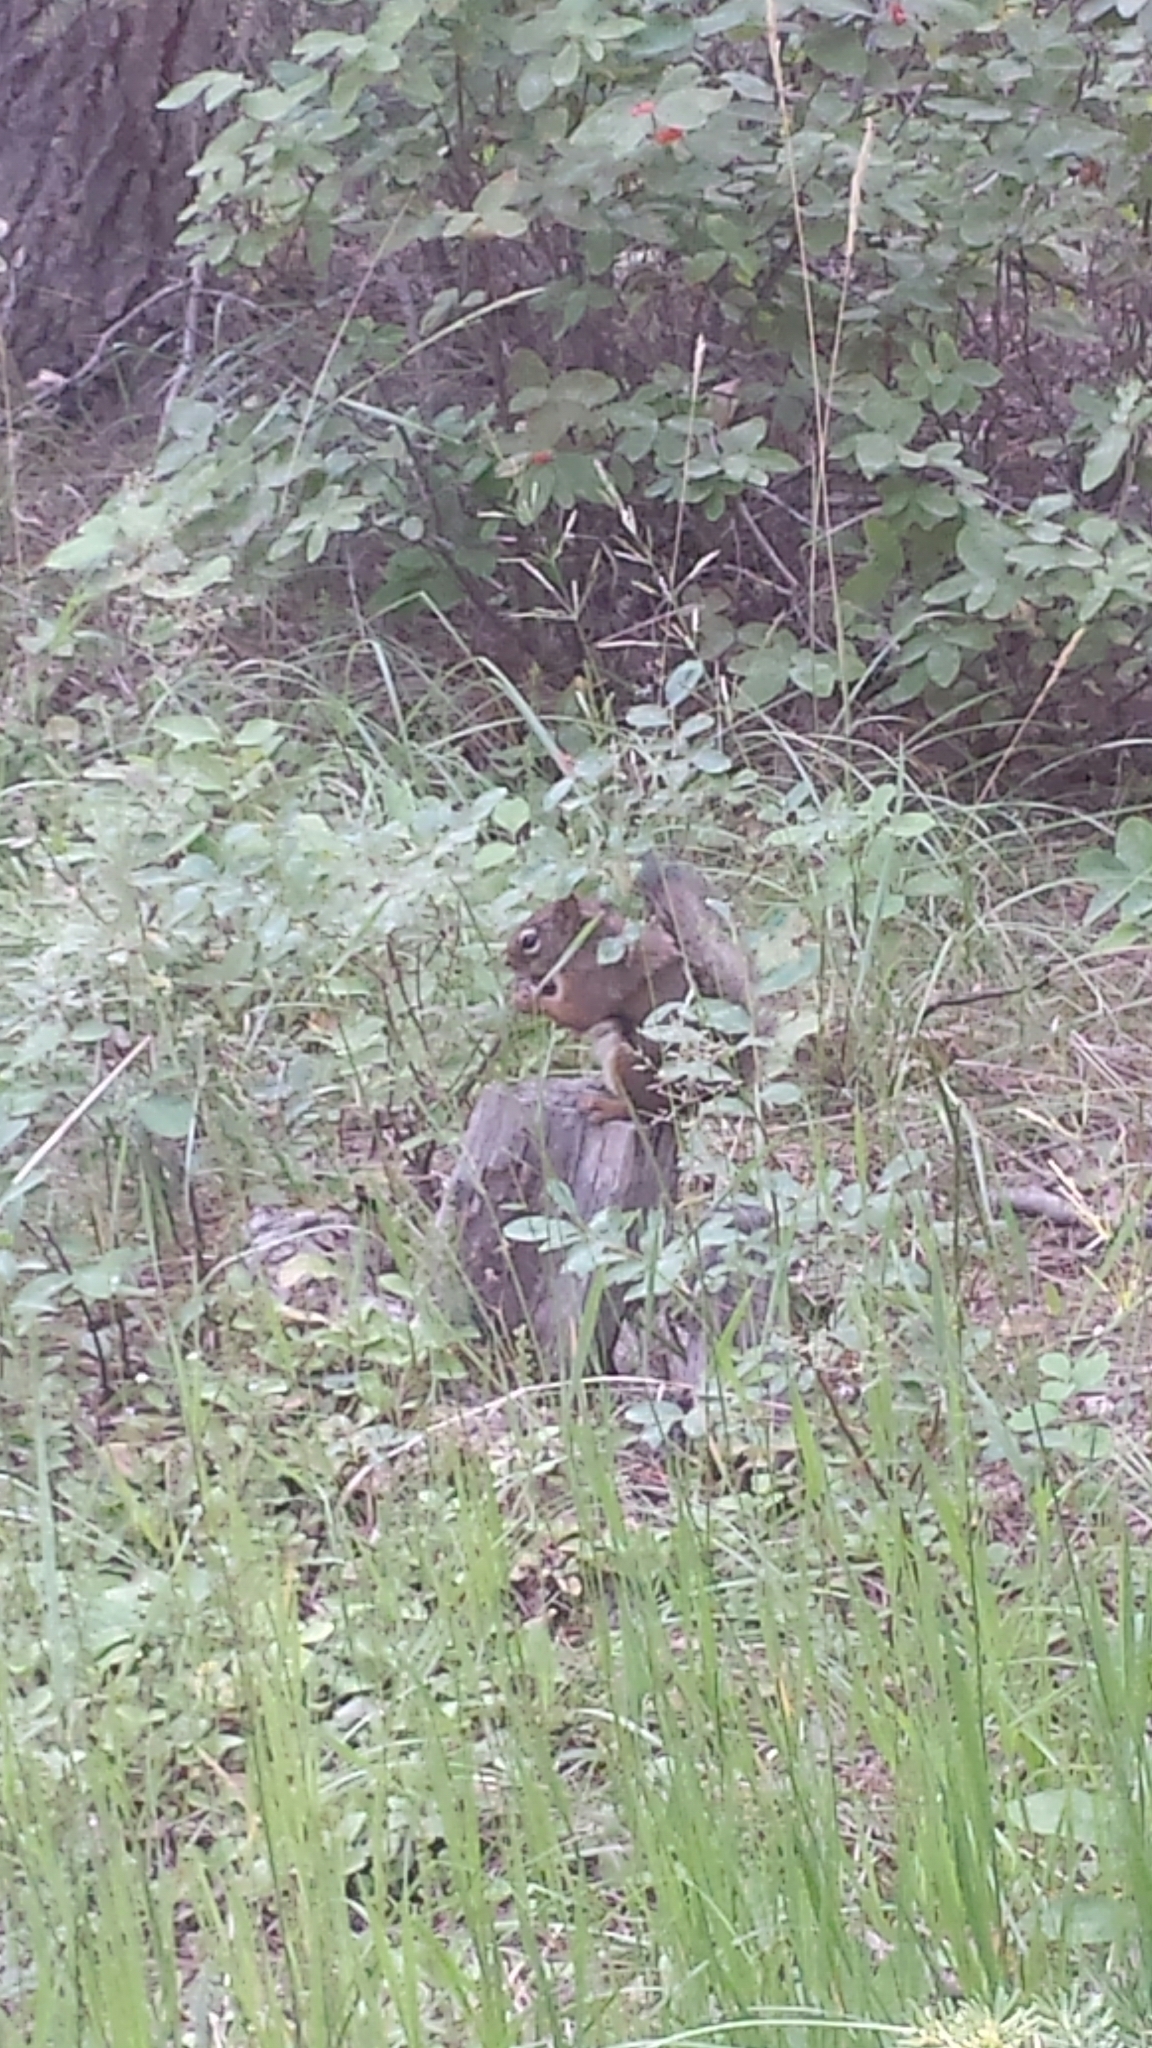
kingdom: Animalia
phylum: Chordata
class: Mammalia
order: Rodentia
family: Sciuridae
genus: Tamiasciurus
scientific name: Tamiasciurus hudsonicus
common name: Red squirrel
